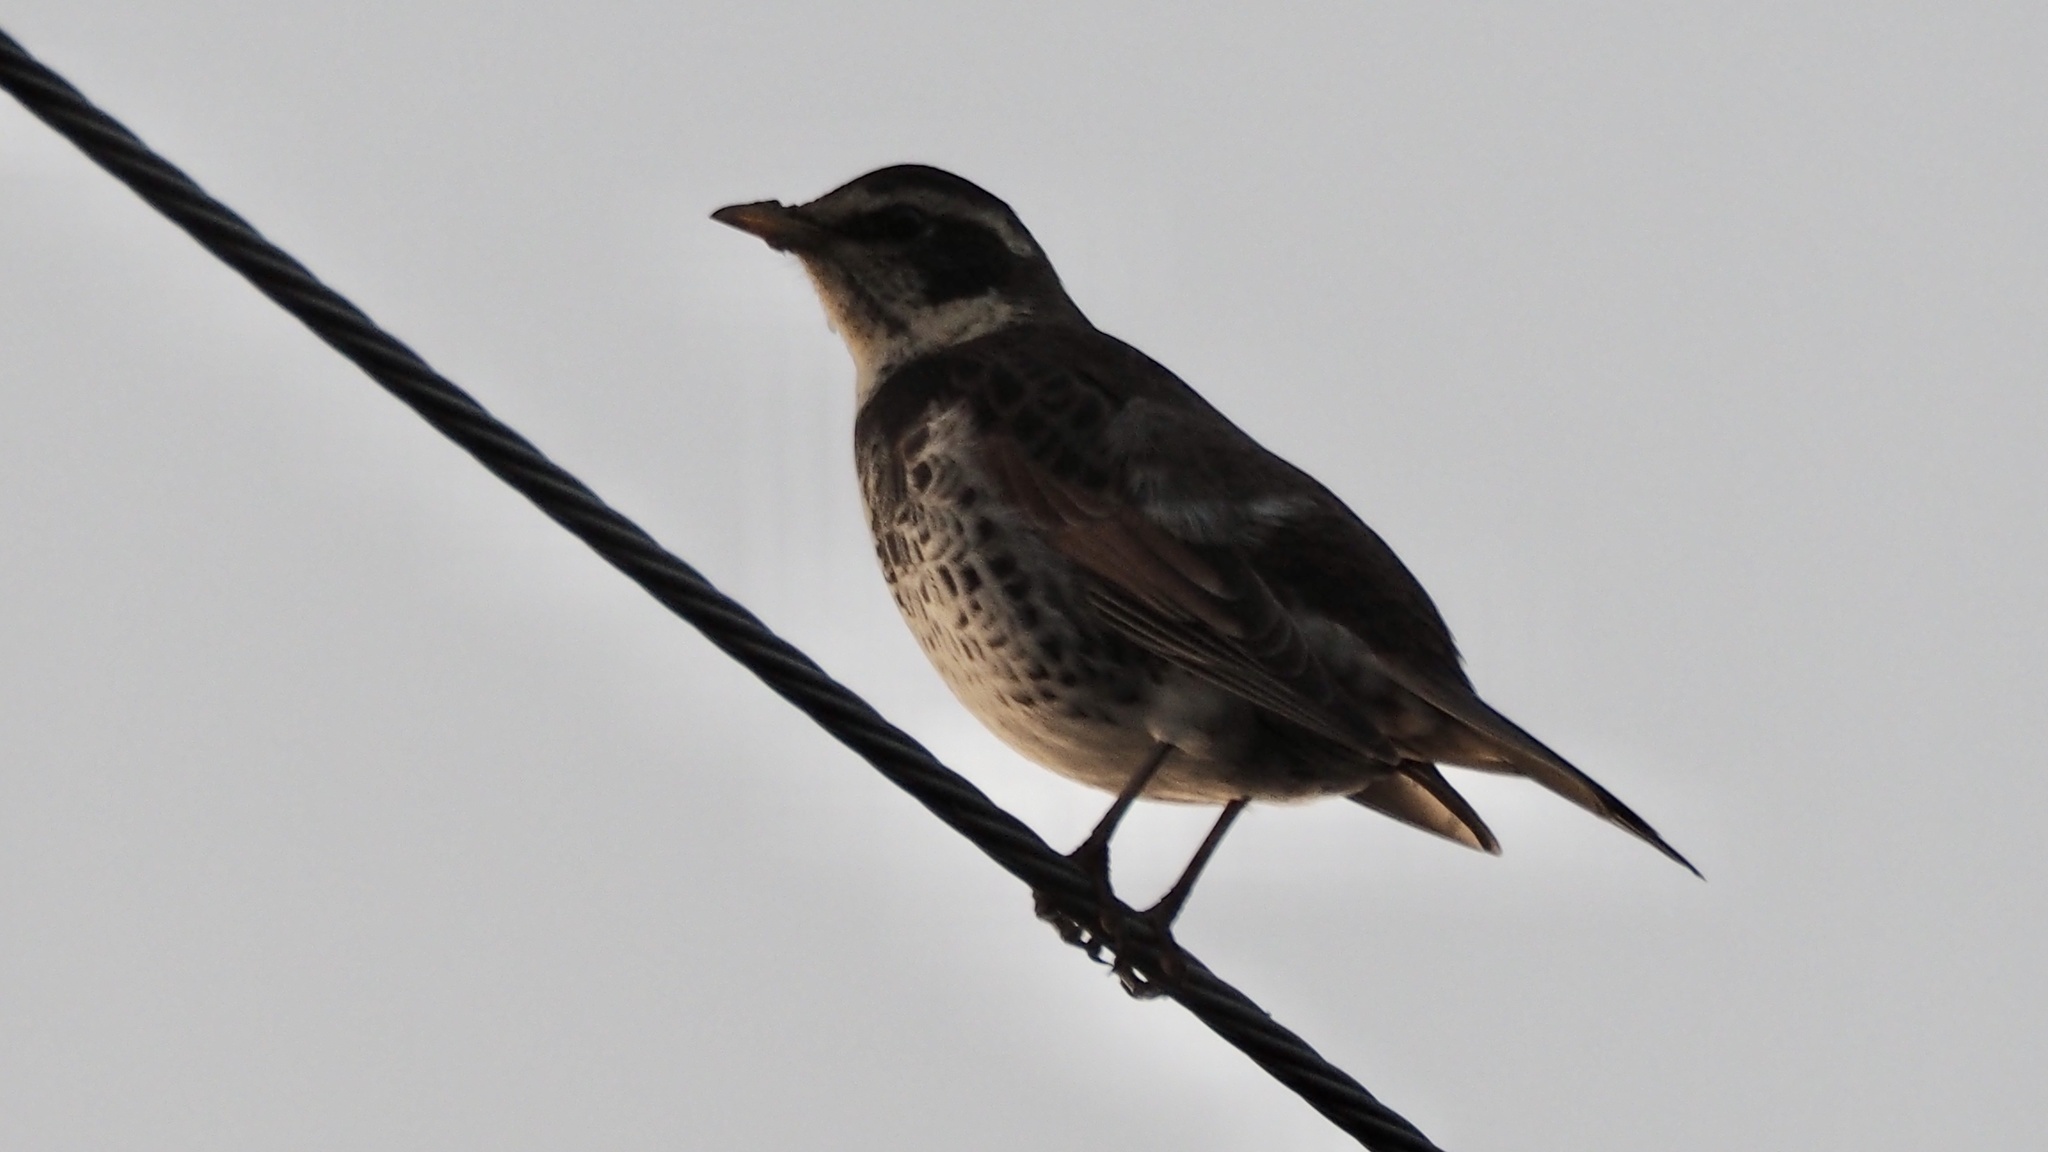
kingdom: Animalia
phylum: Chordata
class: Aves
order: Passeriformes
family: Turdidae
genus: Turdus
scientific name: Turdus eunomus
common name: Dusky thrush
